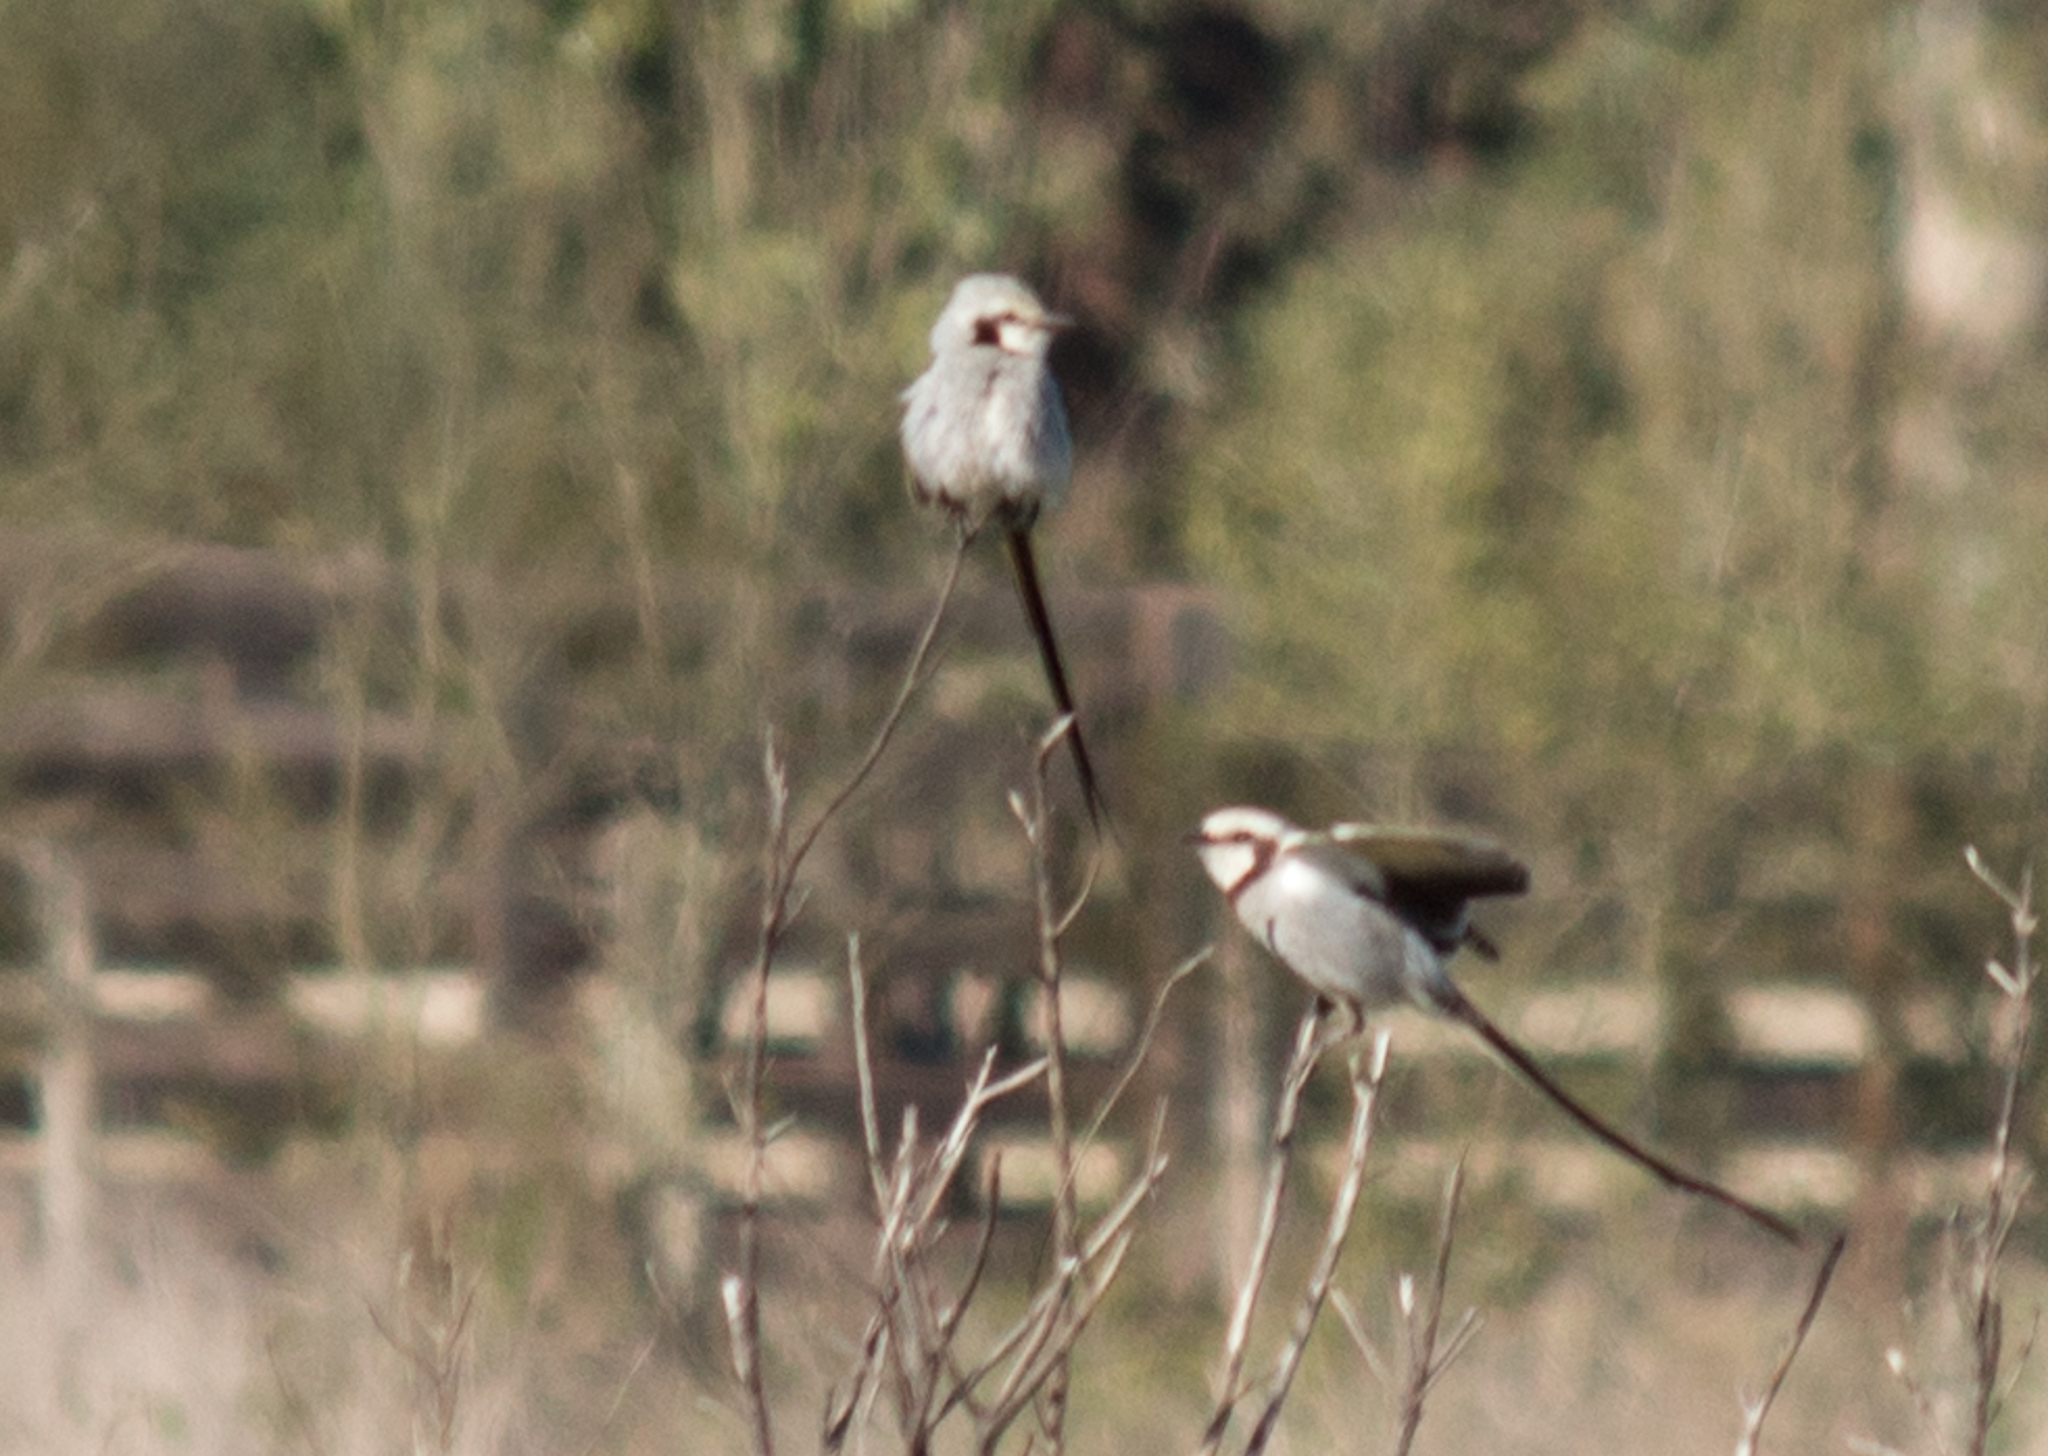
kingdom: Animalia
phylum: Chordata
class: Aves
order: Passeriformes
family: Tyrannidae
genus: Gubernetes
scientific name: Gubernetes yetapa
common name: Streamer-tailed tyrant
